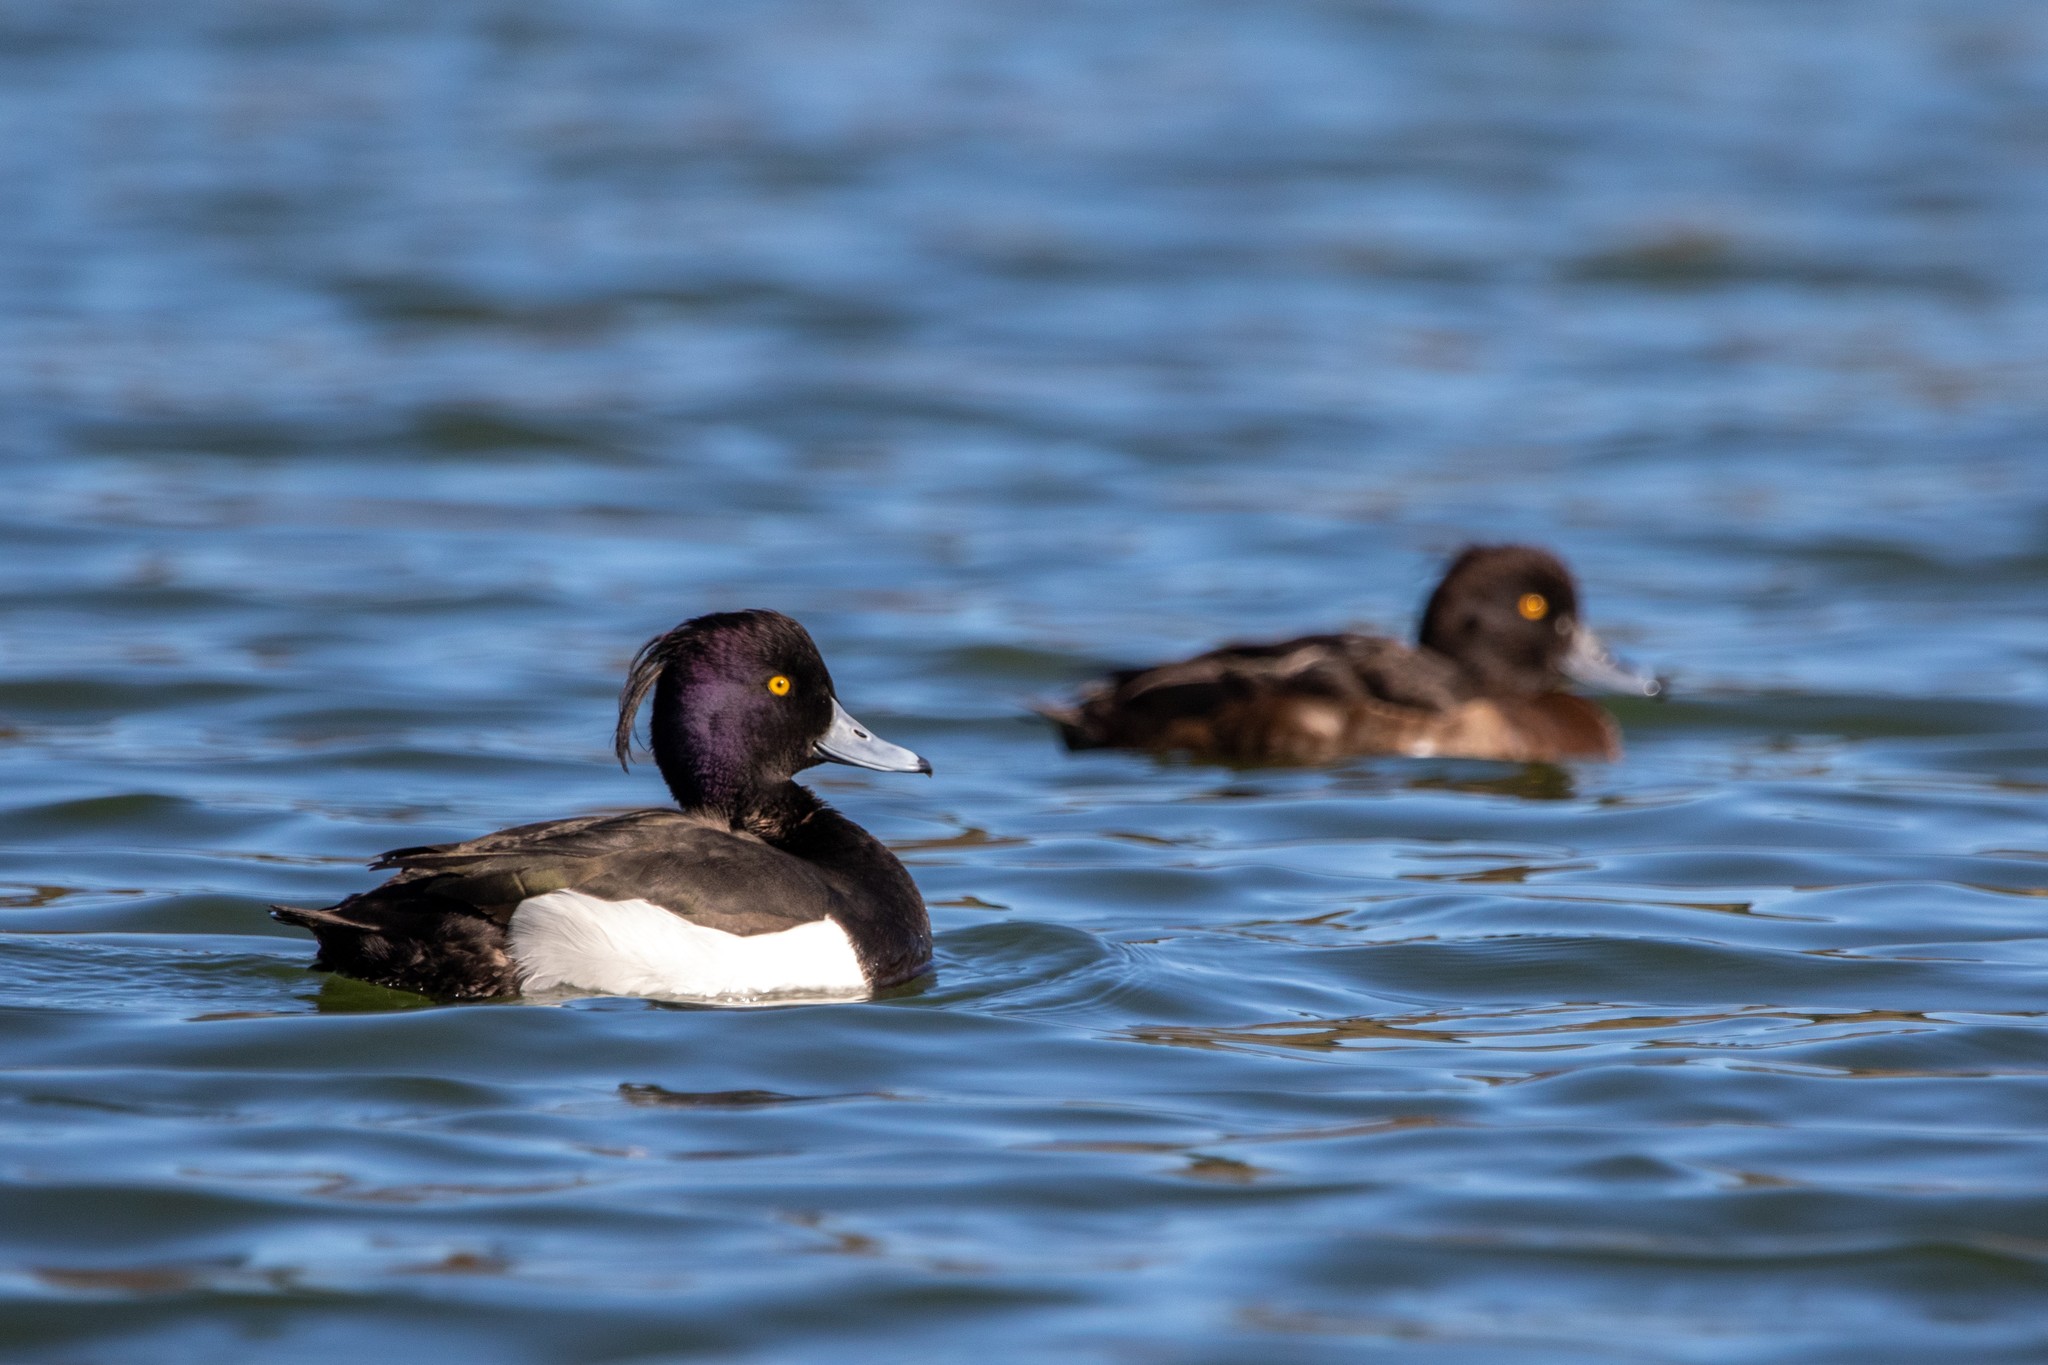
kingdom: Animalia
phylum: Chordata
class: Aves
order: Anseriformes
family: Anatidae
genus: Aythya
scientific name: Aythya fuligula
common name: Tufted duck
